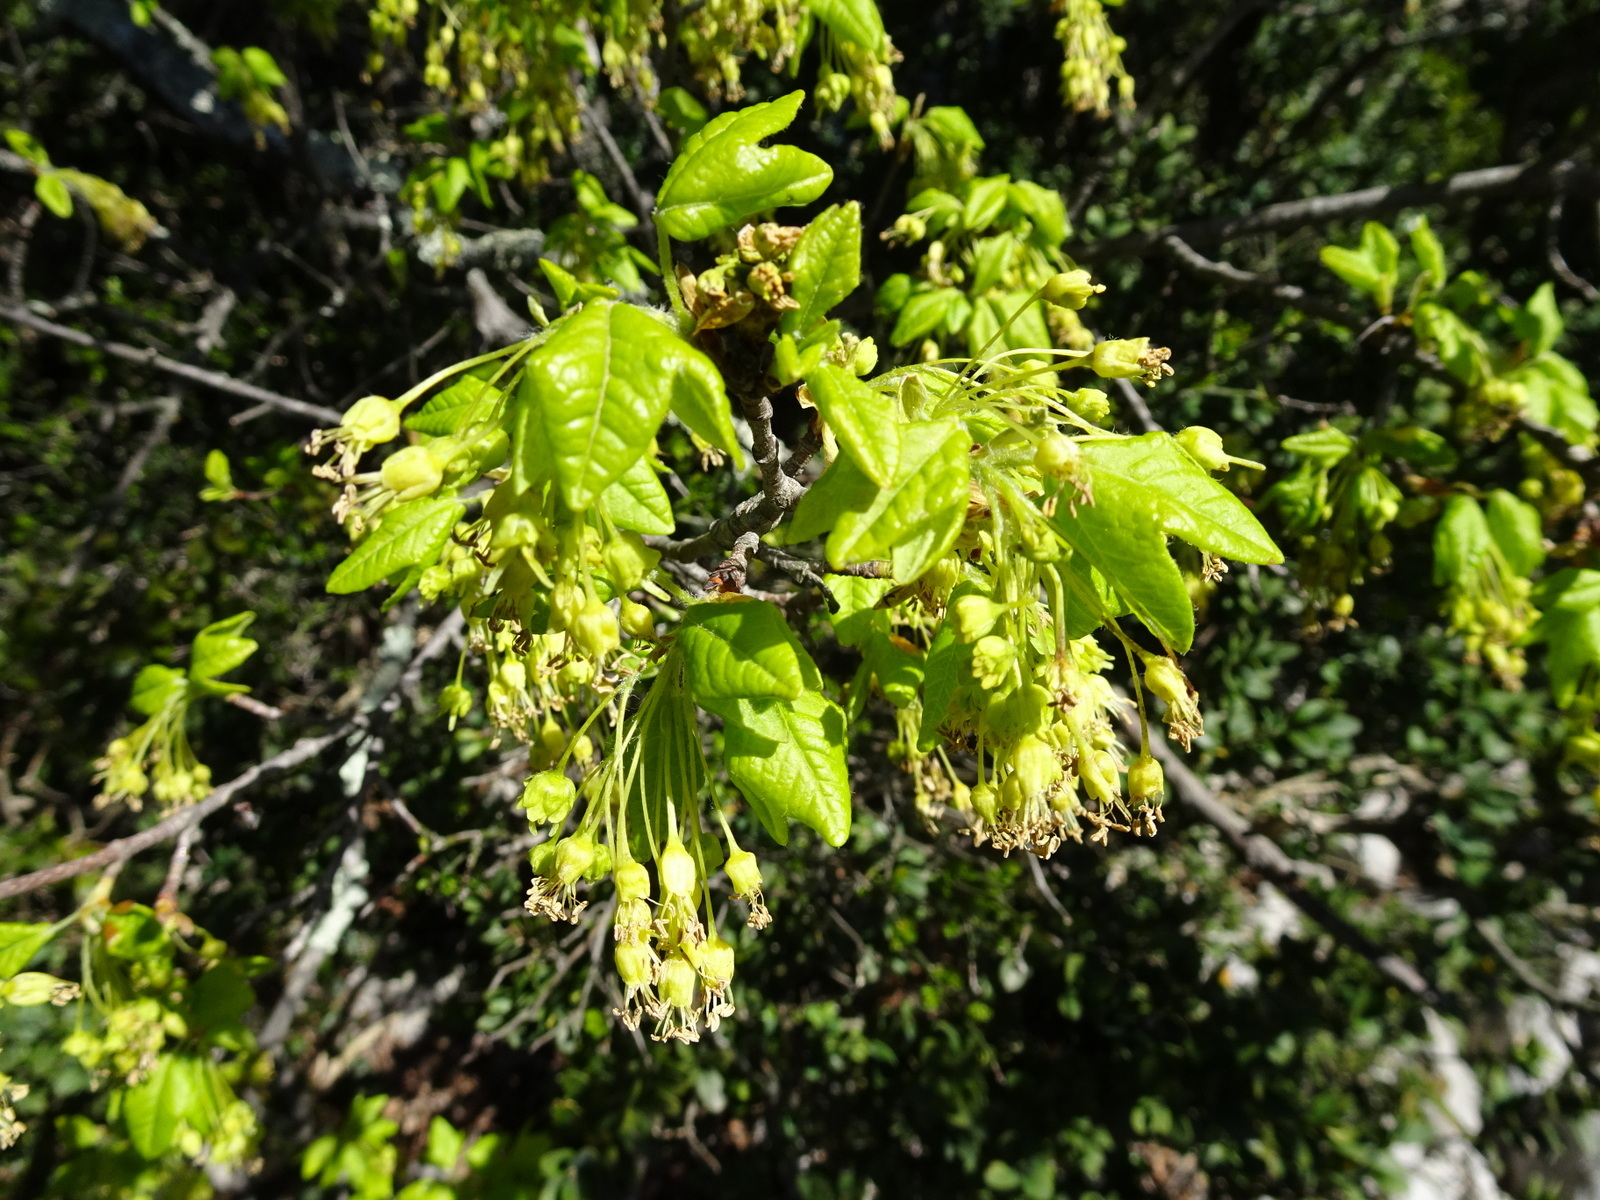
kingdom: Plantae
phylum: Tracheophyta
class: Magnoliopsida
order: Sapindales
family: Sapindaceae
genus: Acer
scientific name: Acer monspessulanum
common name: Montpellier maple
